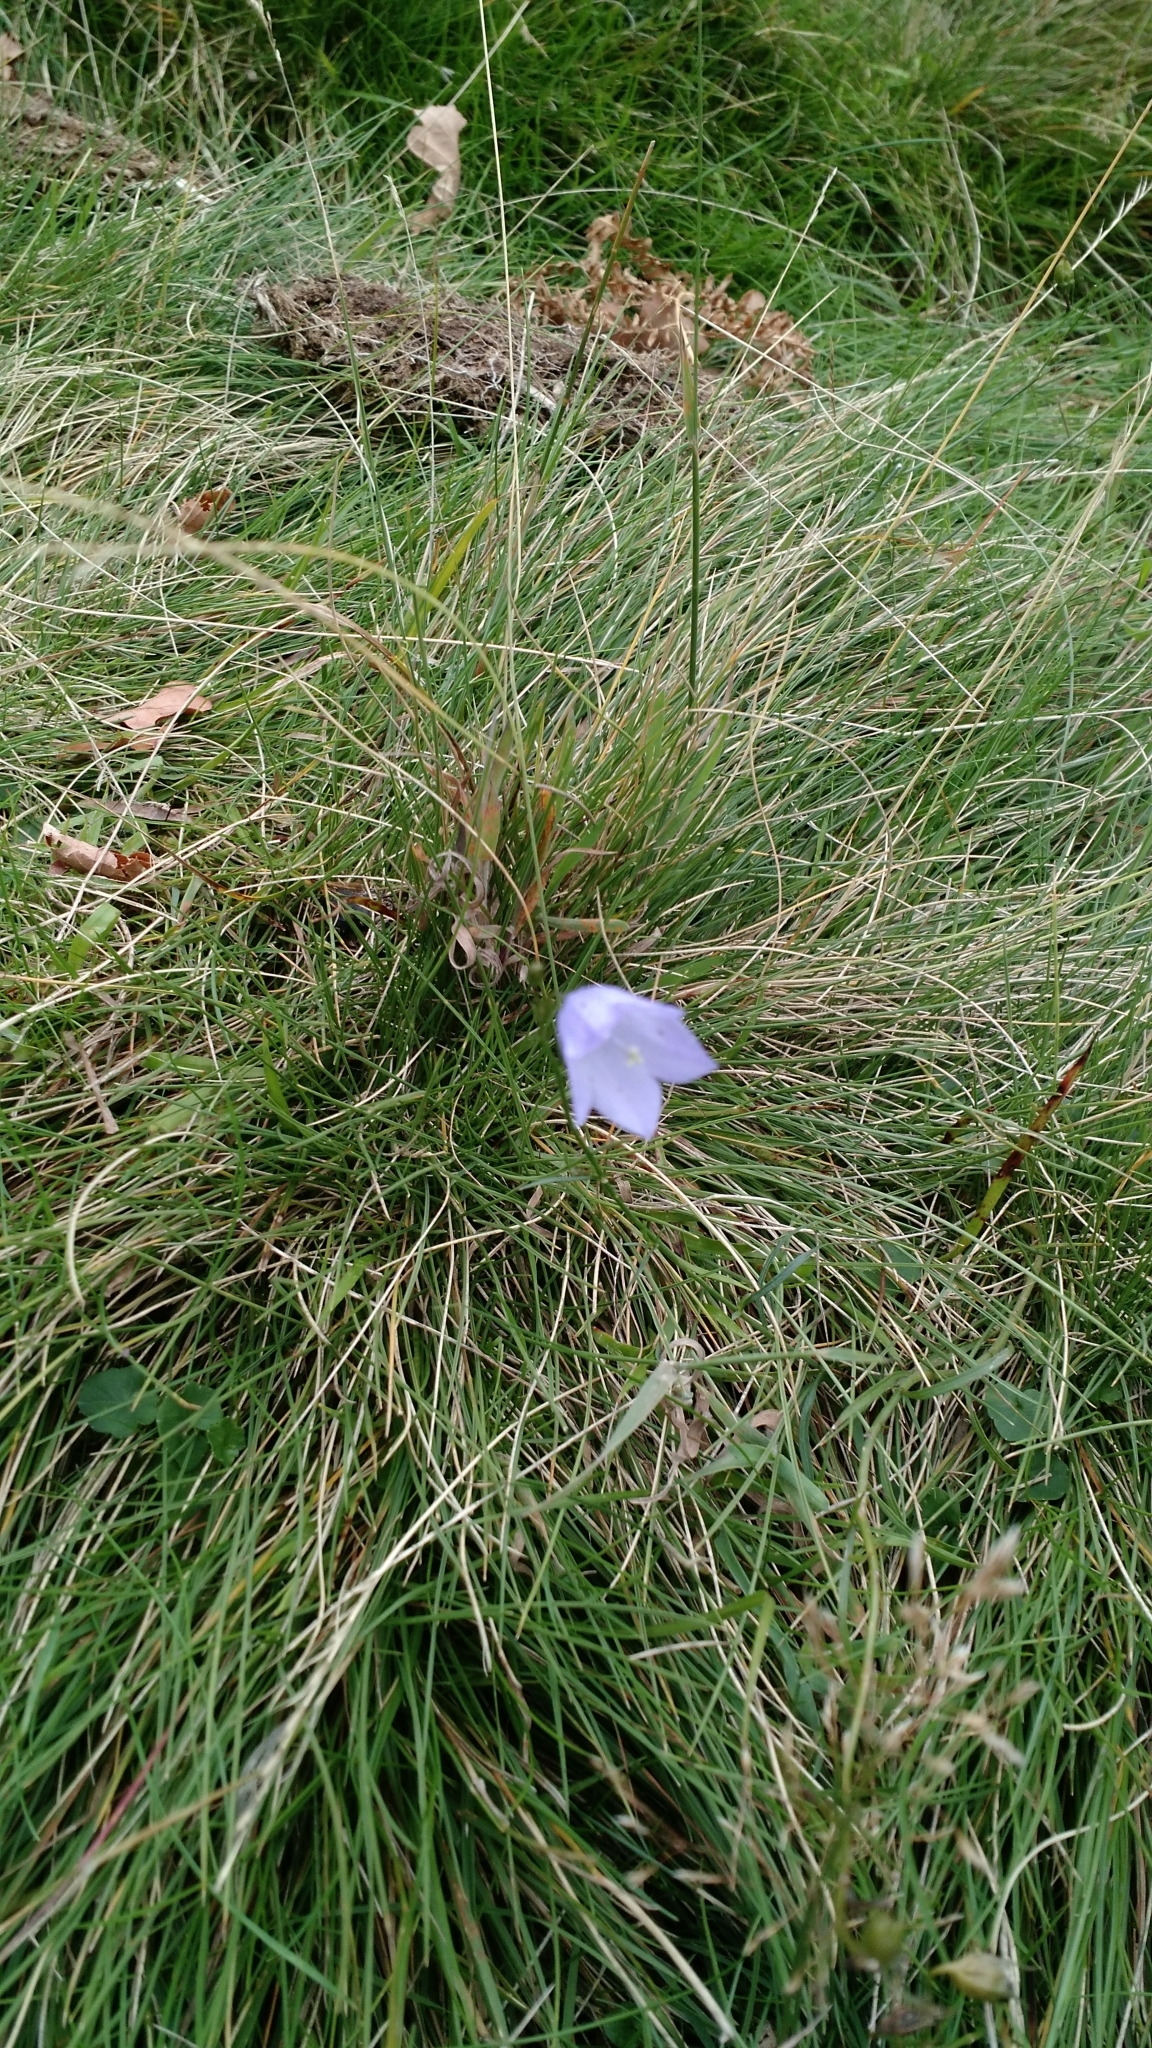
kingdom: Plantae
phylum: Tracheophyta
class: Magnoliopsida
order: Asterales
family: Campanulaceae
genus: Campanula
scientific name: Campanula rotundifolia
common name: Harebell
